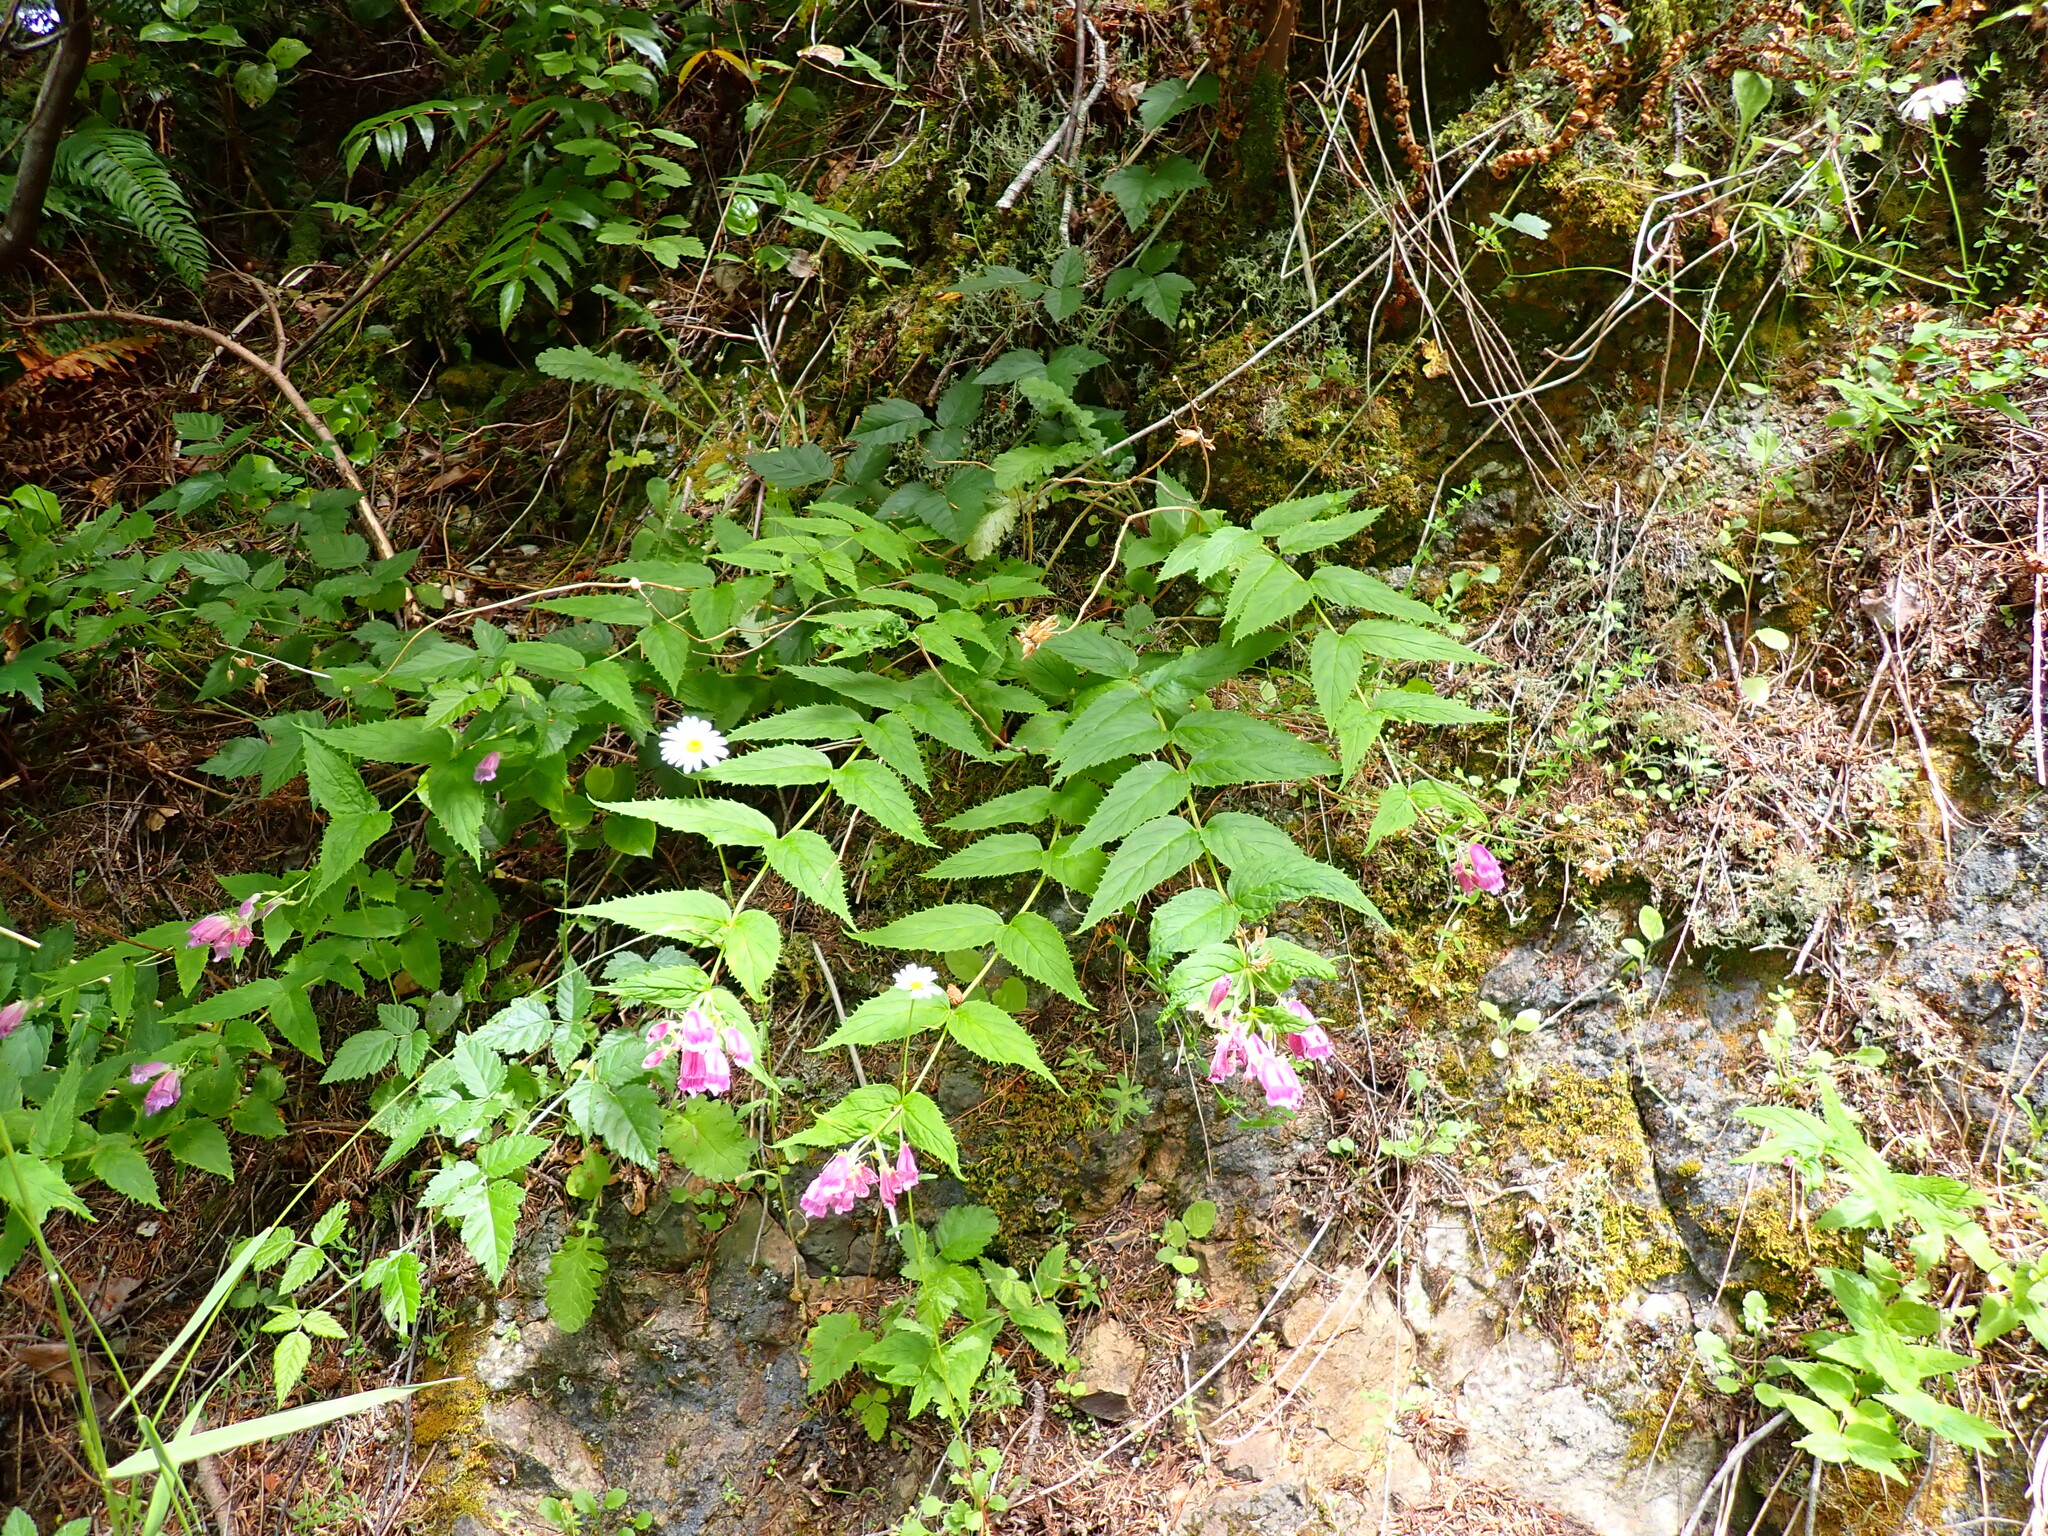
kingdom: Plantae
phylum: Tracheophyta
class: Magnoliopsida
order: Lamiales
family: Plantaginaceae
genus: Nothochelone
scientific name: Nothochelone nemorosa
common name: Woodland beardtongue
